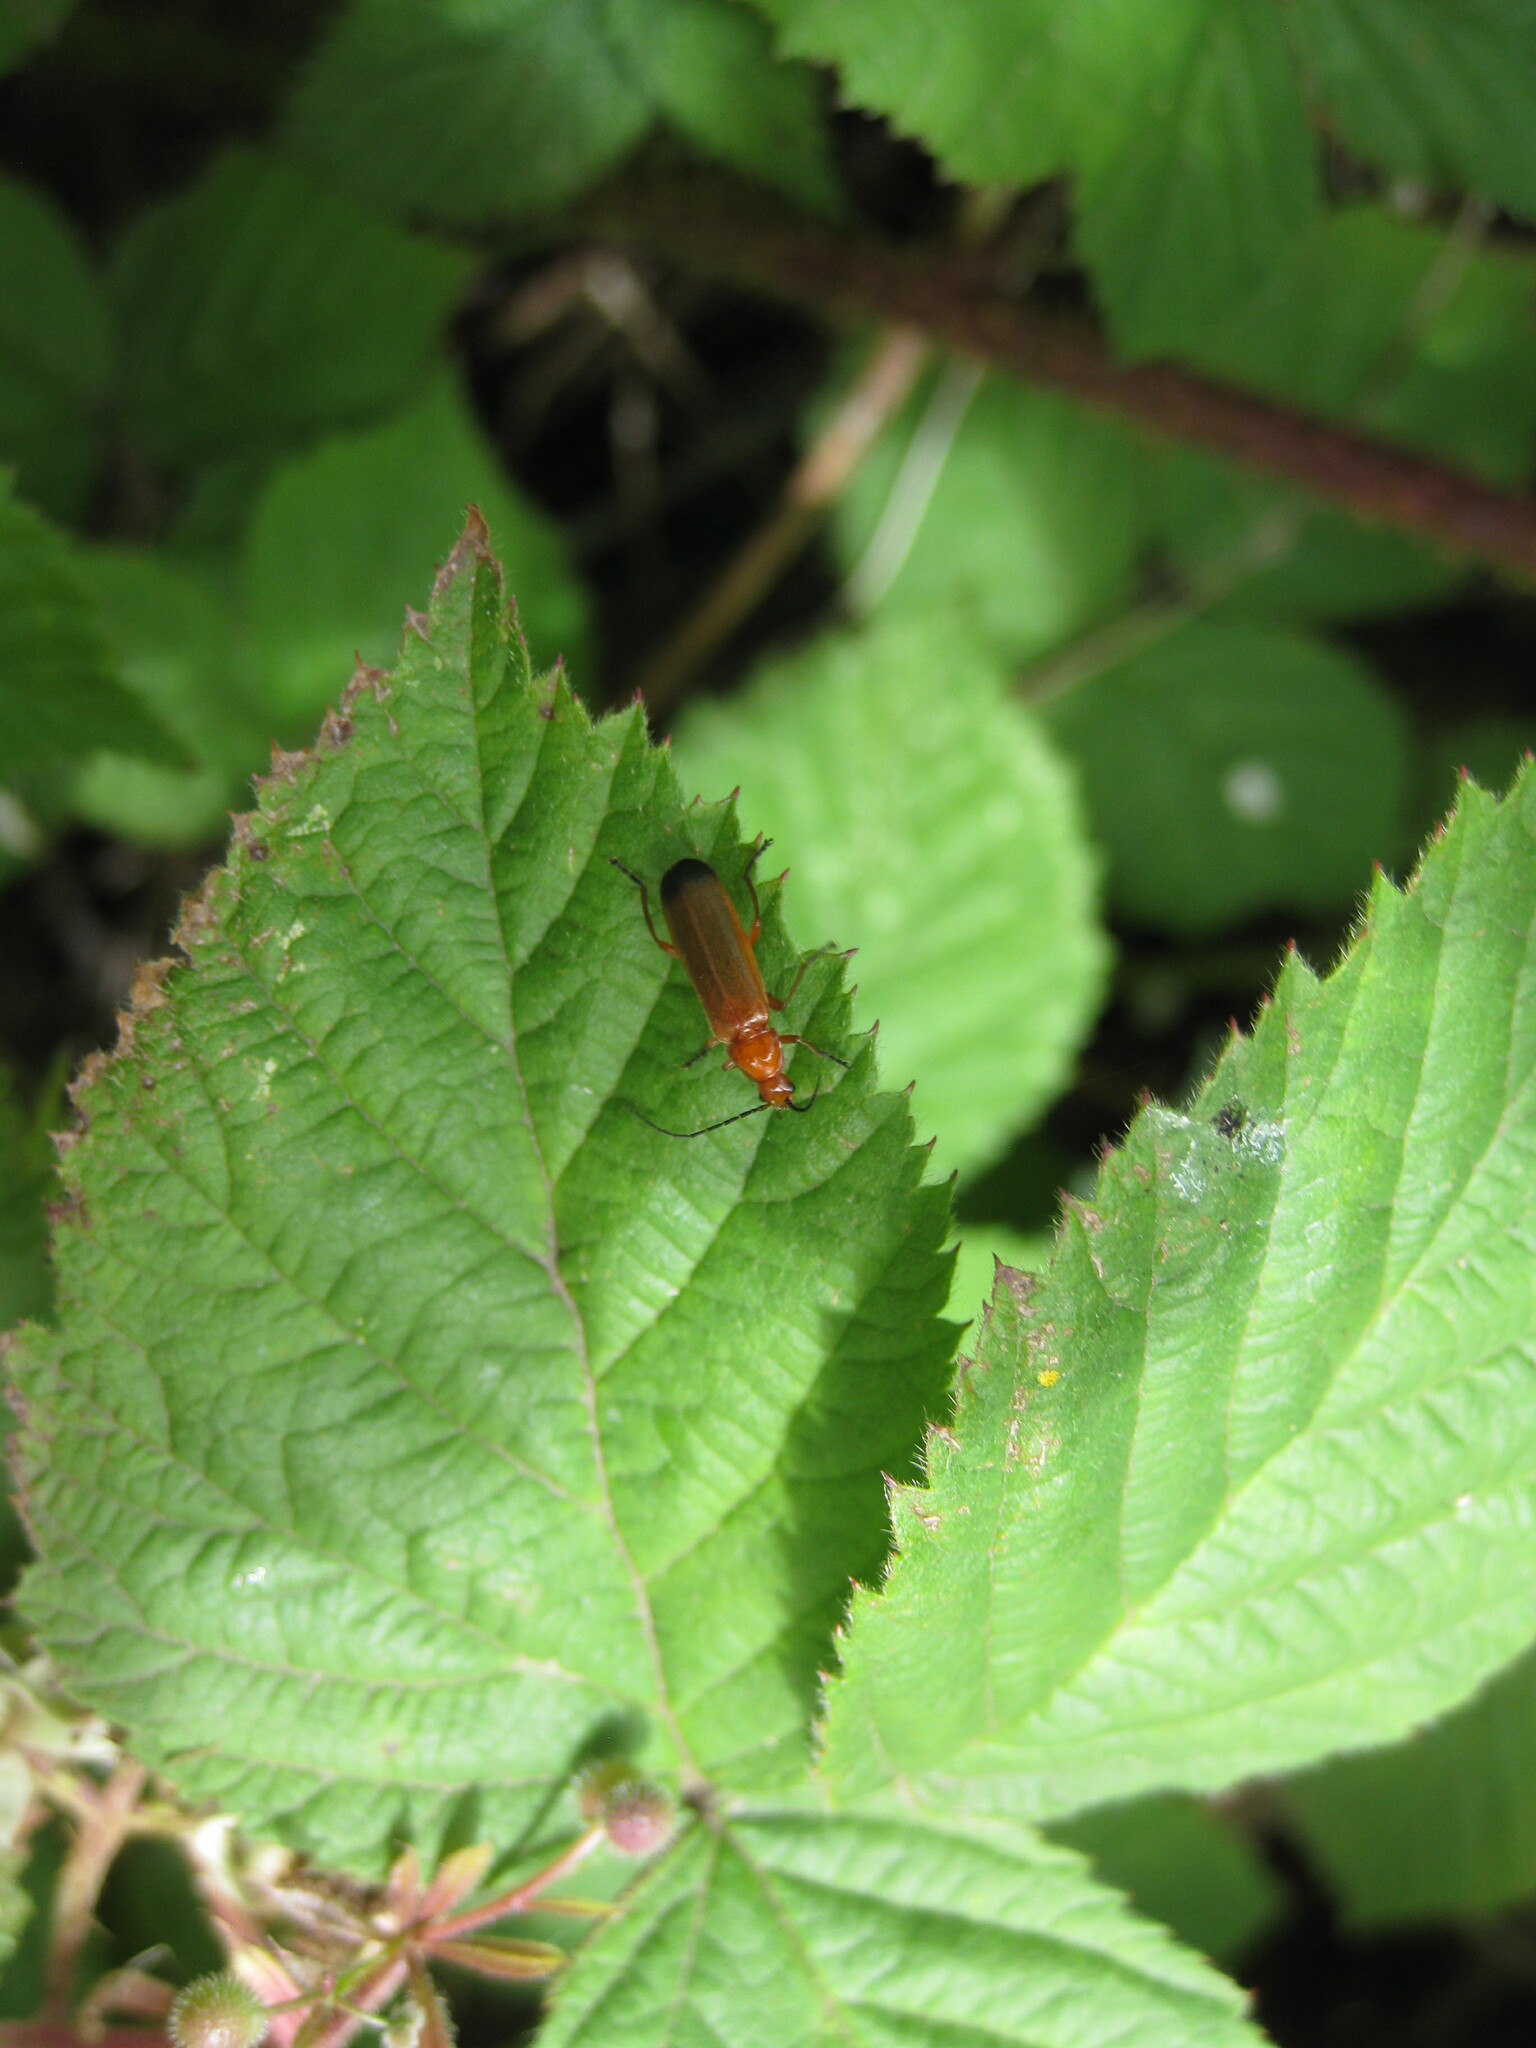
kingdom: Animalia
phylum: Arthropoda
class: Insecta
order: Coleoptera
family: Cantharidae
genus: Rhagonycha
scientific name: Rhagonycha fulva
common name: Common red soldier beetle
